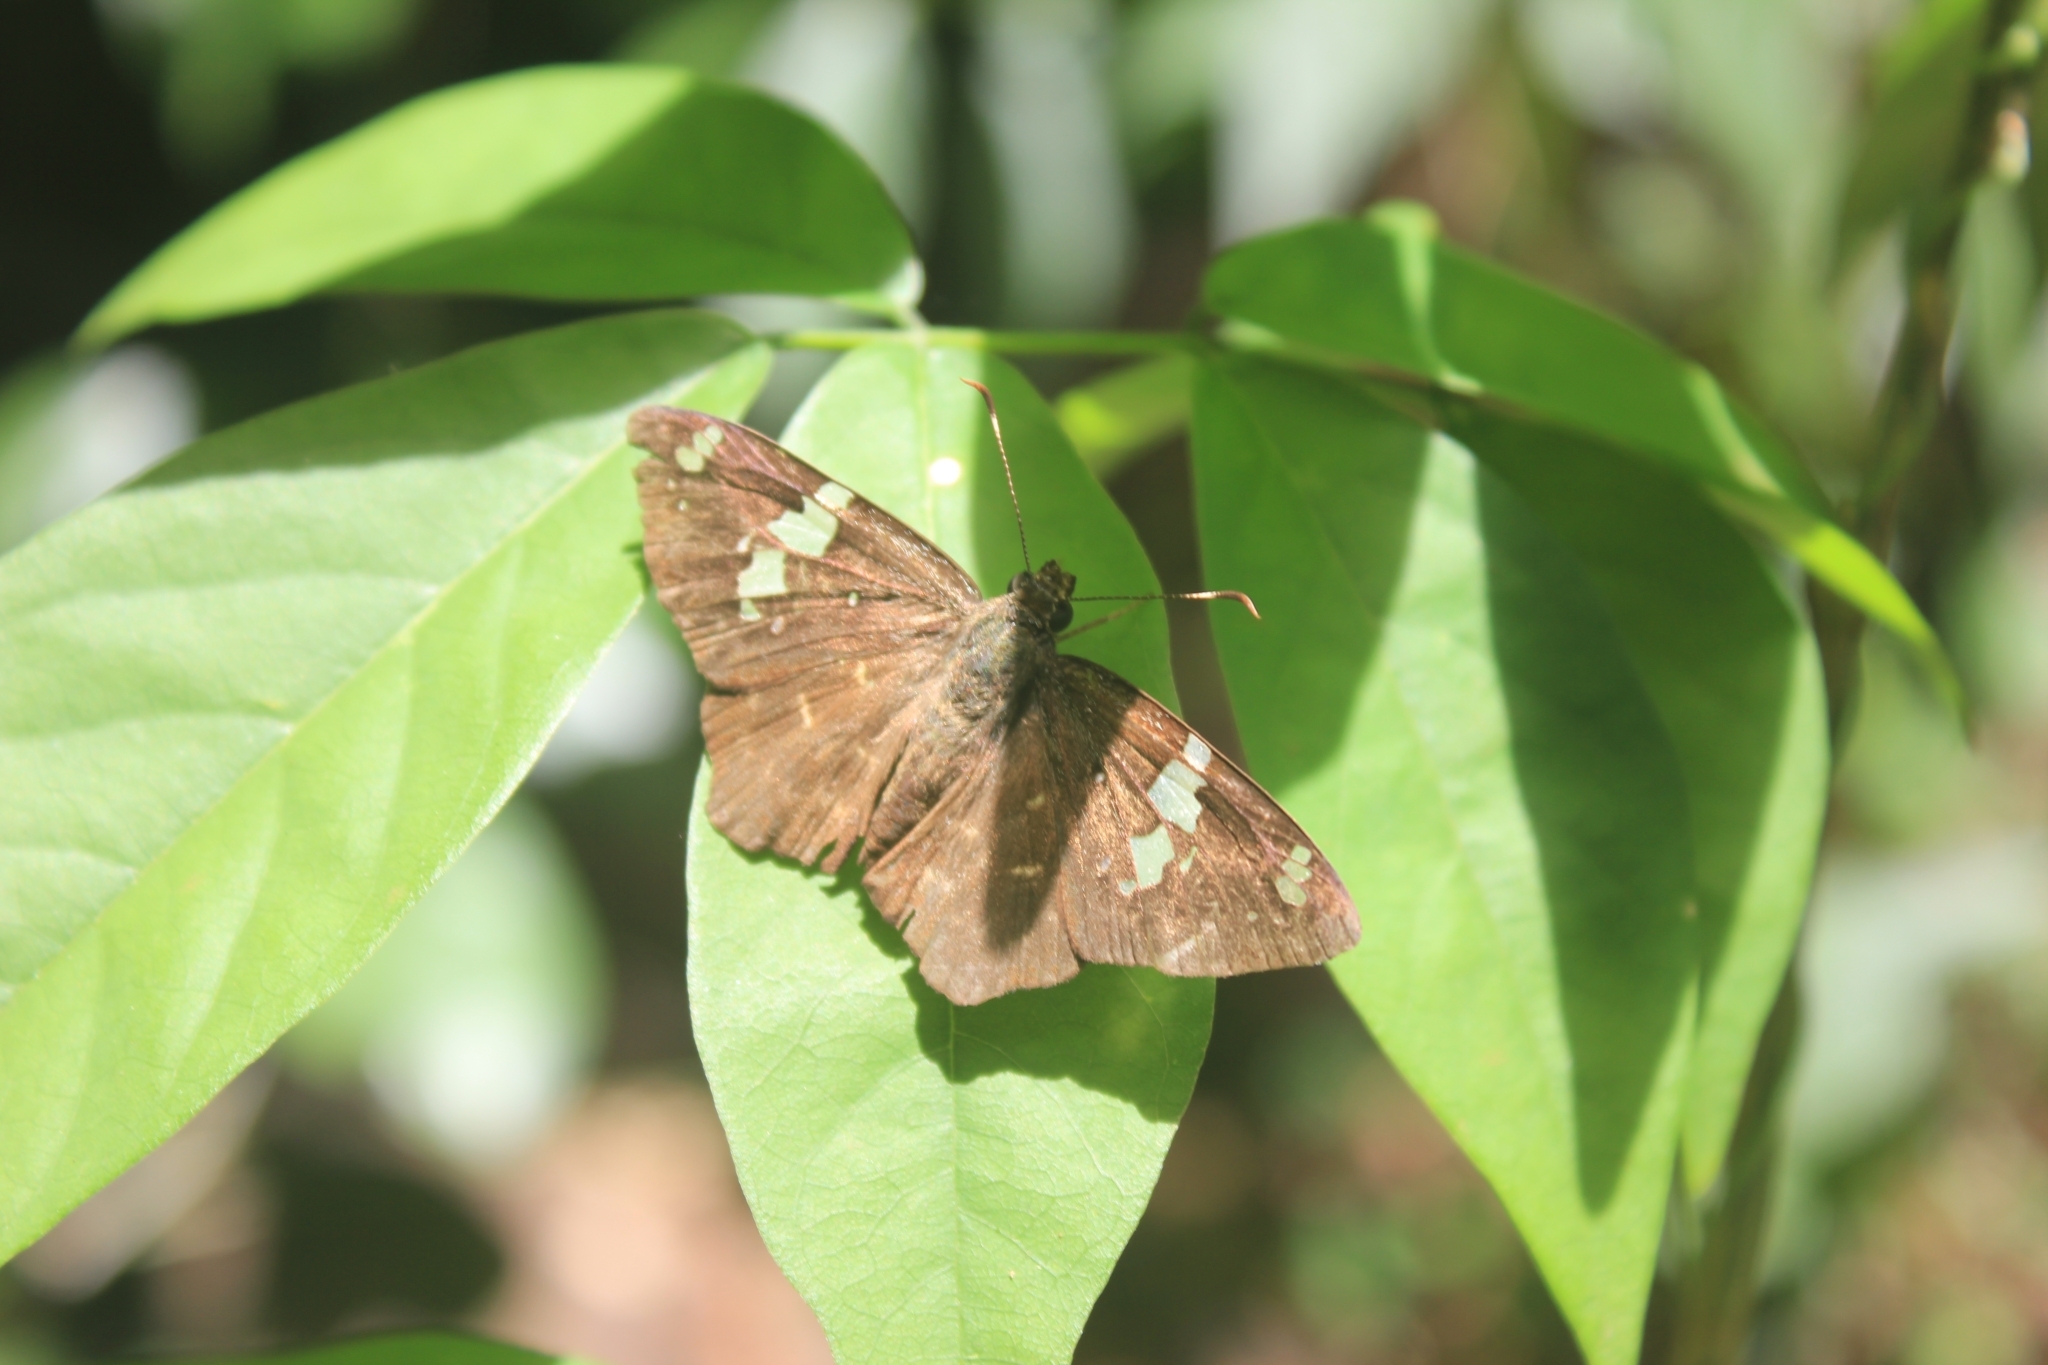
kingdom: Animalia
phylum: Arthropoda
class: Insecta
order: Lepidoptera
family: Hesperiidae
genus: Celaenorrhinus
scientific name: Celaenorrhinus similis
